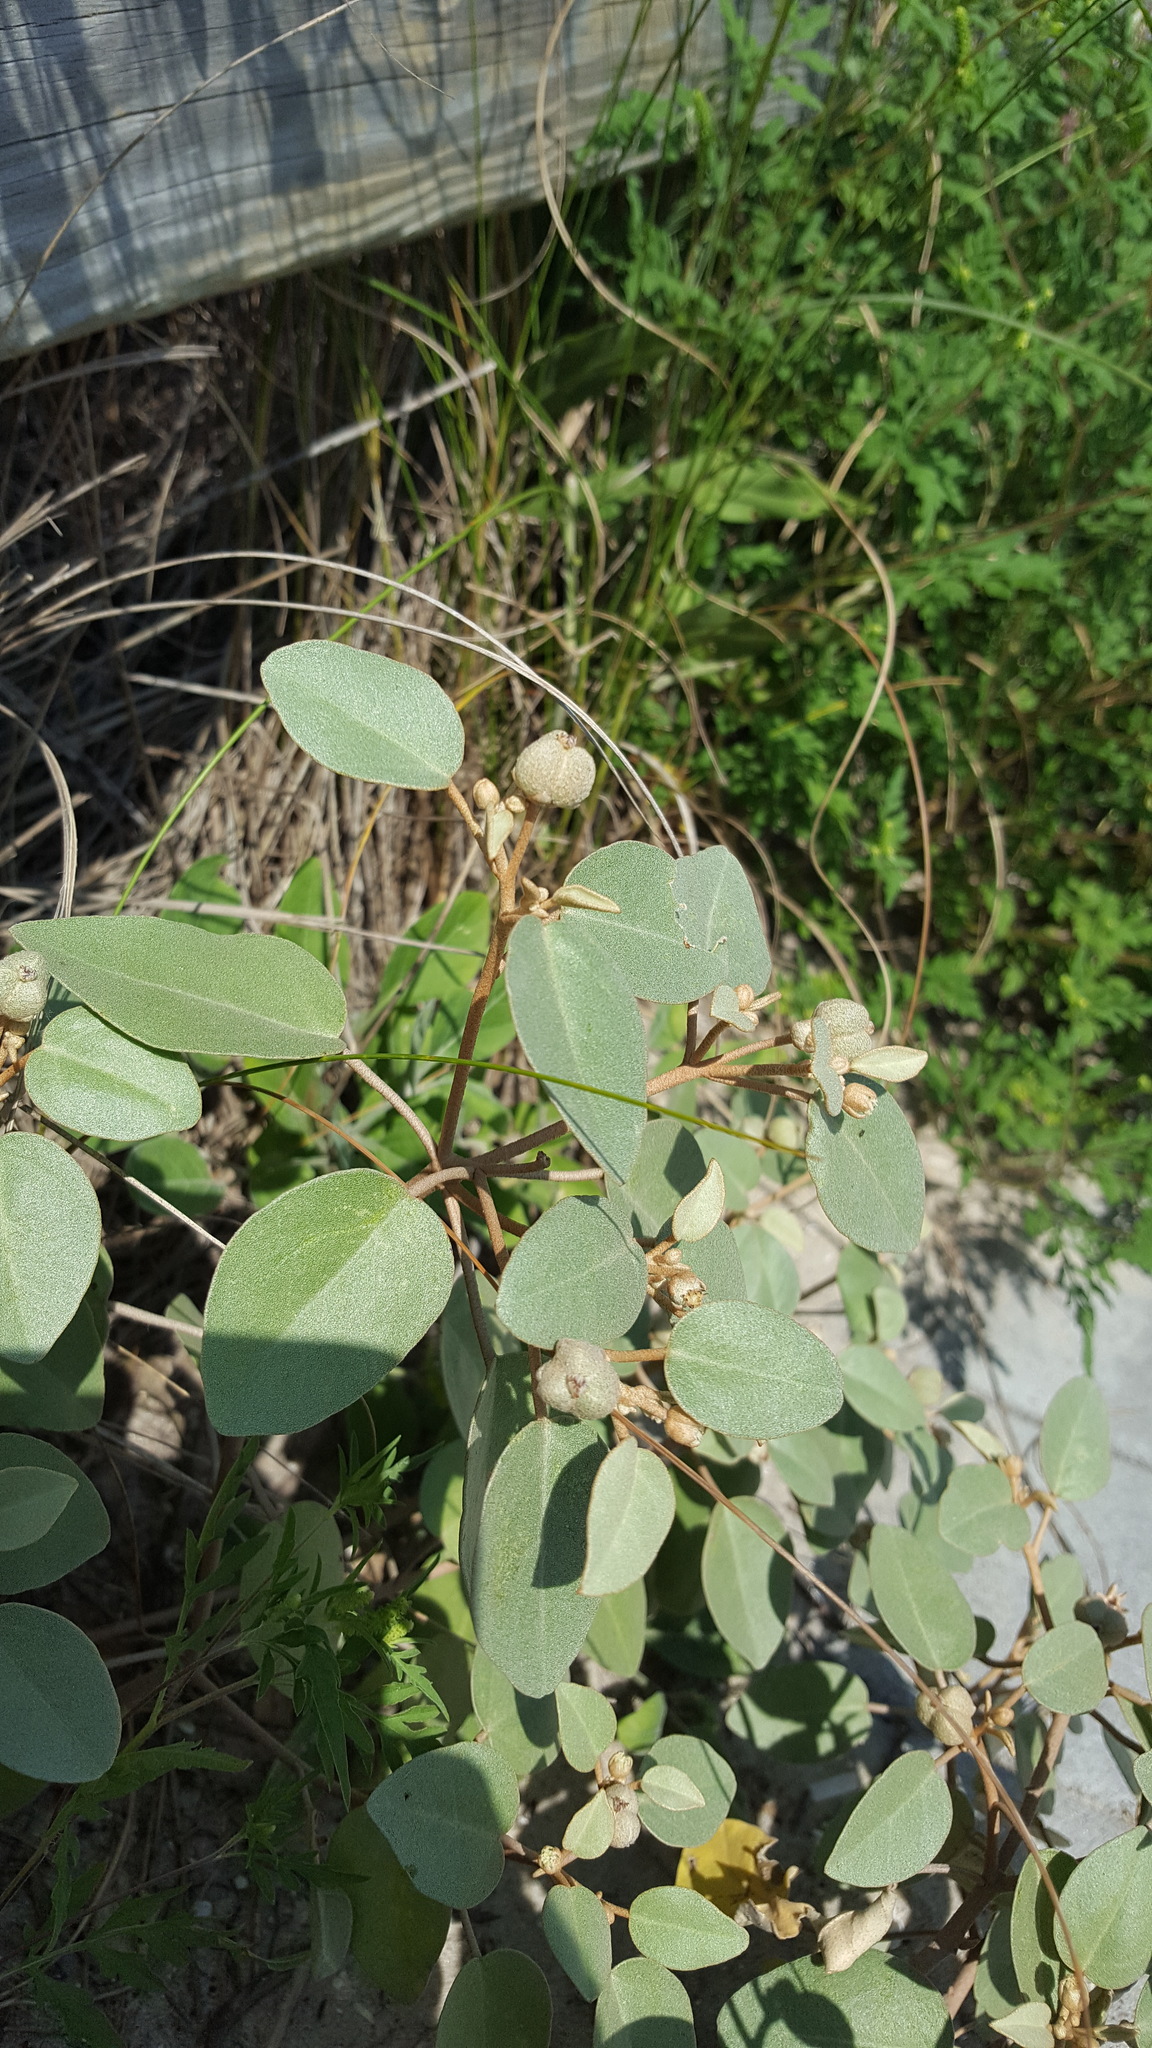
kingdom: Plantae
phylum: Tracheophyta
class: Magnoliopsida
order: Malpighiales
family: Euphorbiaceae
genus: Croton
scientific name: Croton punctatus
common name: Beach-tea
